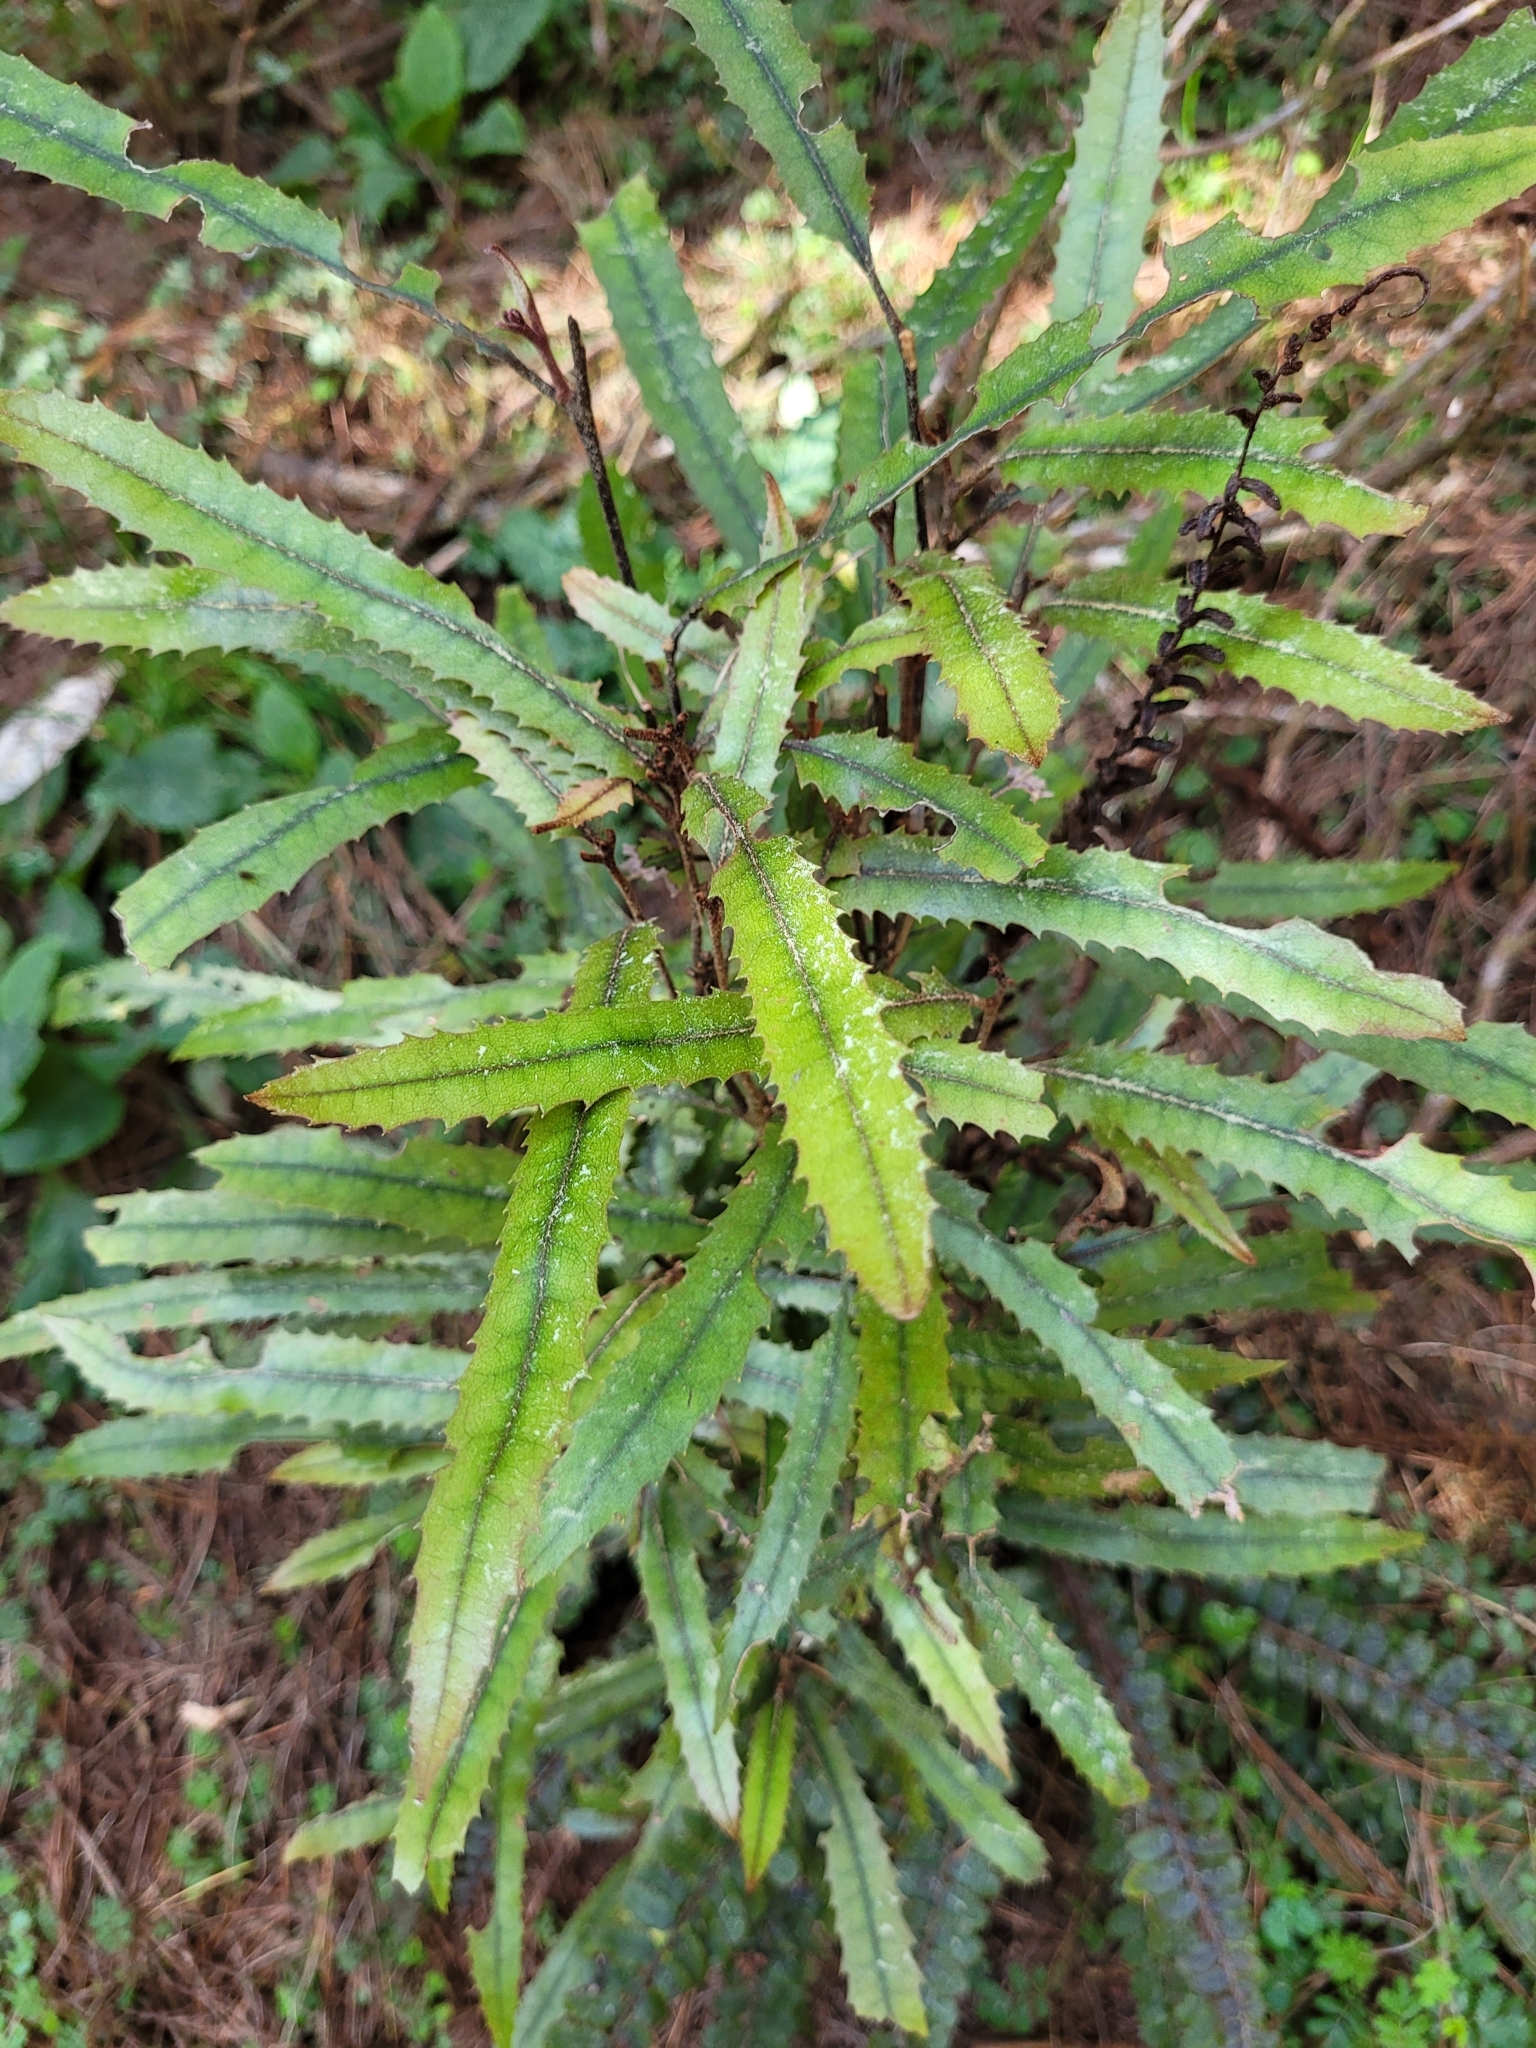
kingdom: Plantae
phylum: Tracheophyta
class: Magnoliopsida
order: Proteales
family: Proteaceae
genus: Knightia
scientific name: Knightia excelsa
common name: New zealand-honeysuckle
